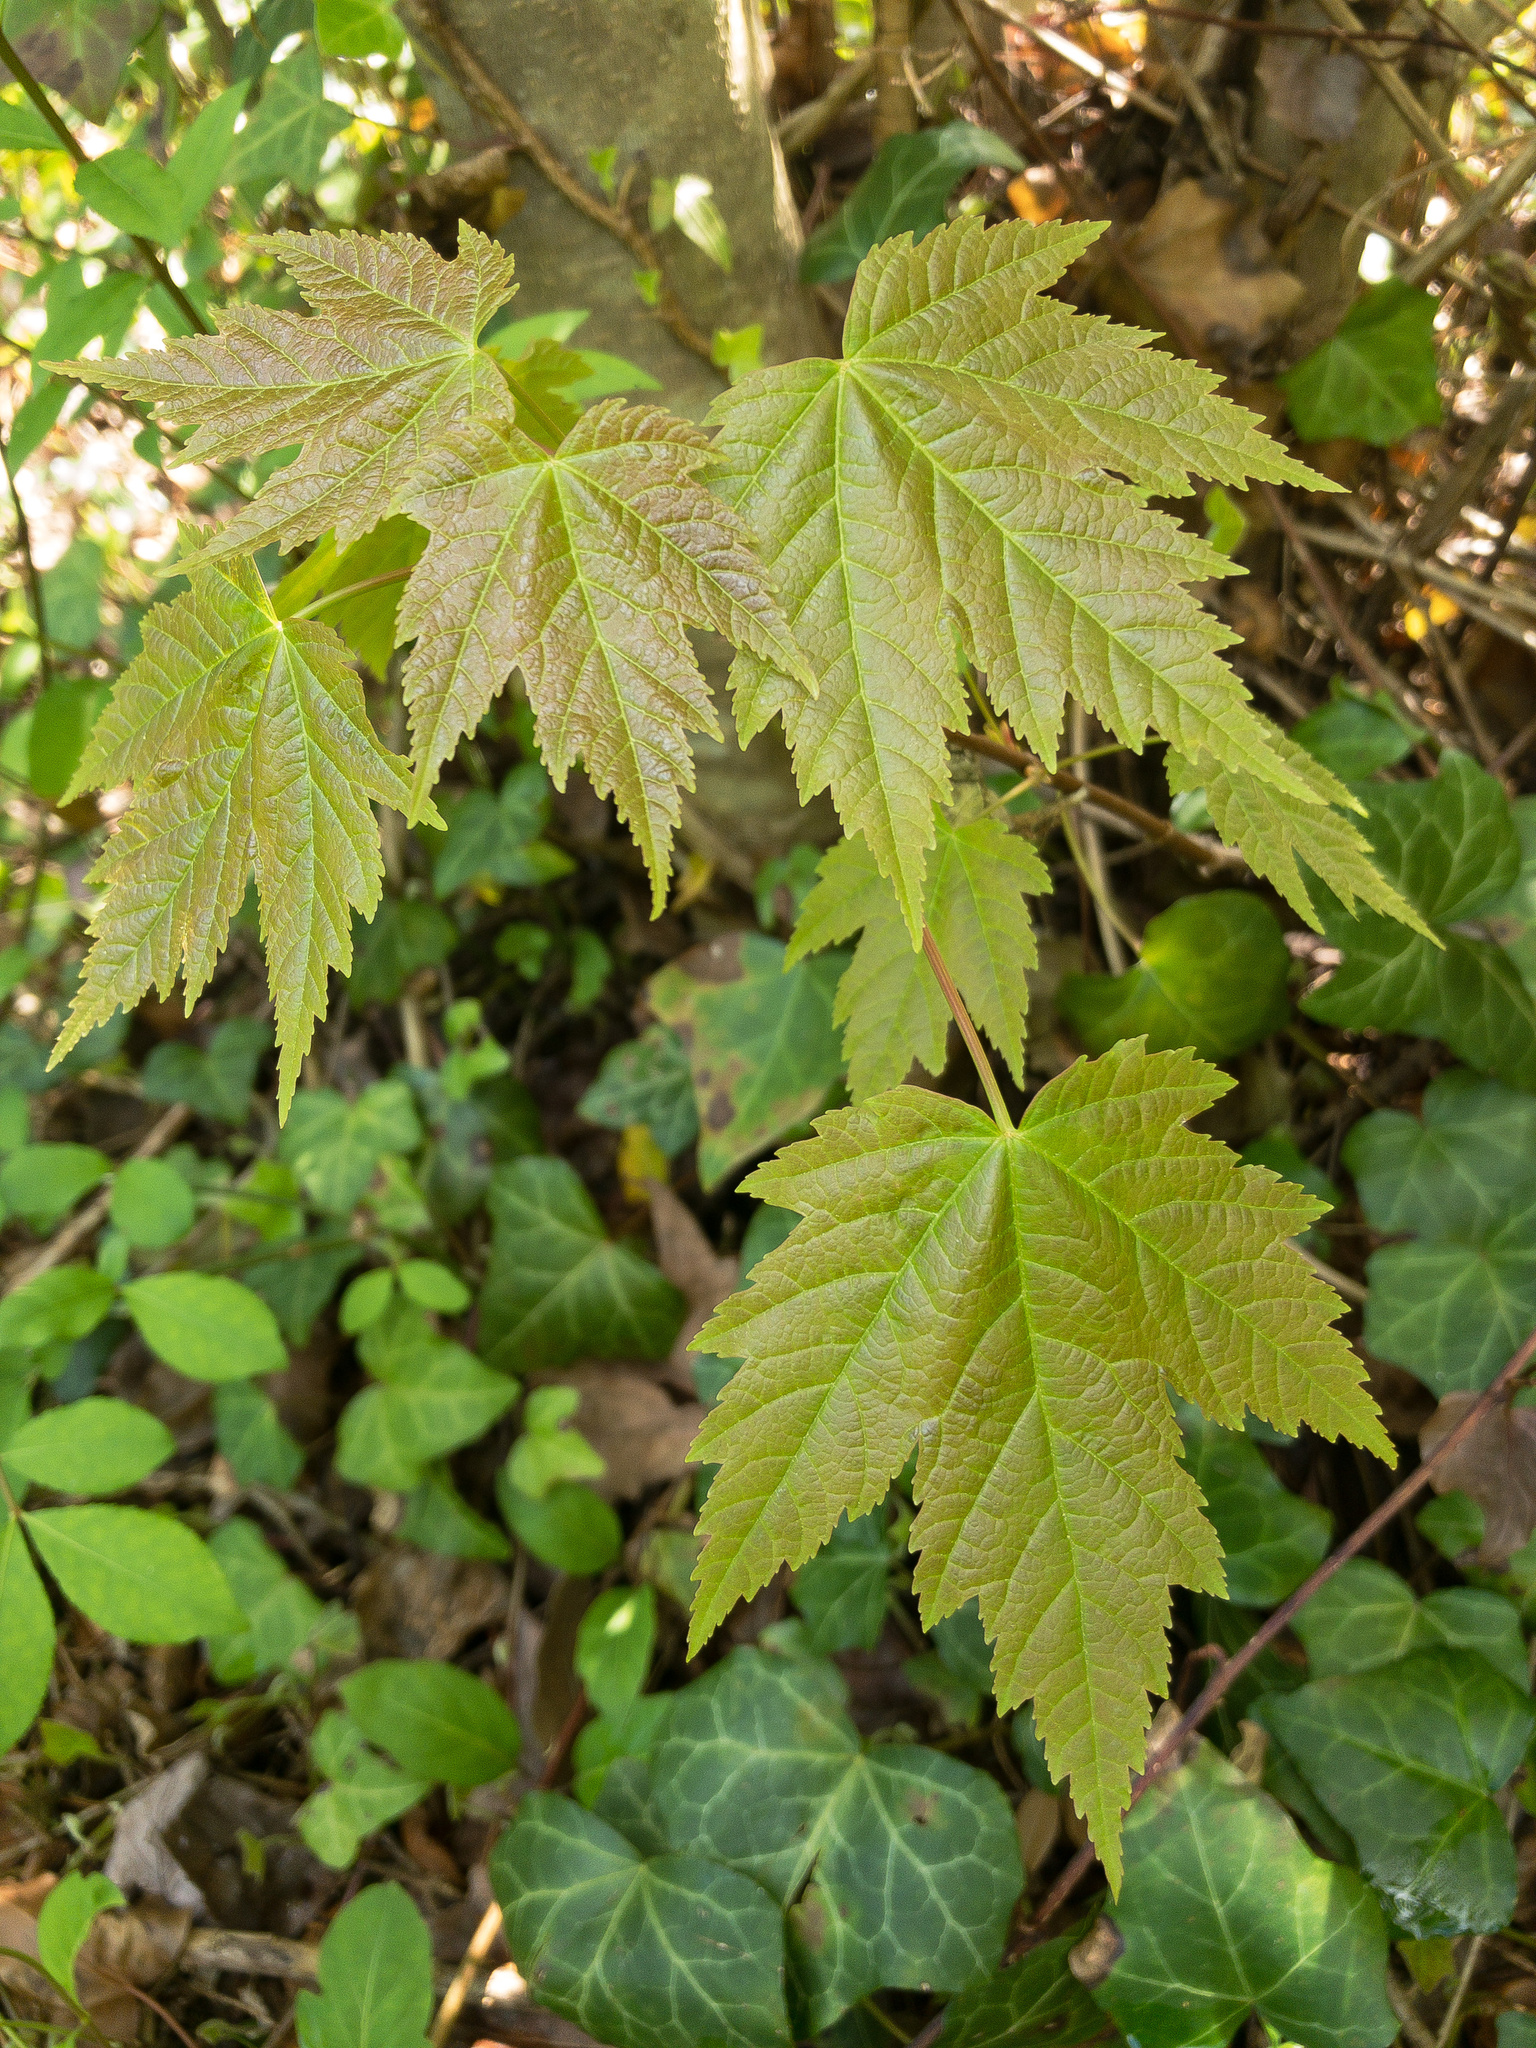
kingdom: Plantae
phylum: Tracheophyta
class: Magnoliopsida
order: Sapindales
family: Sapindaceae
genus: Acer
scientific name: Acer rubrum
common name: Red maple
